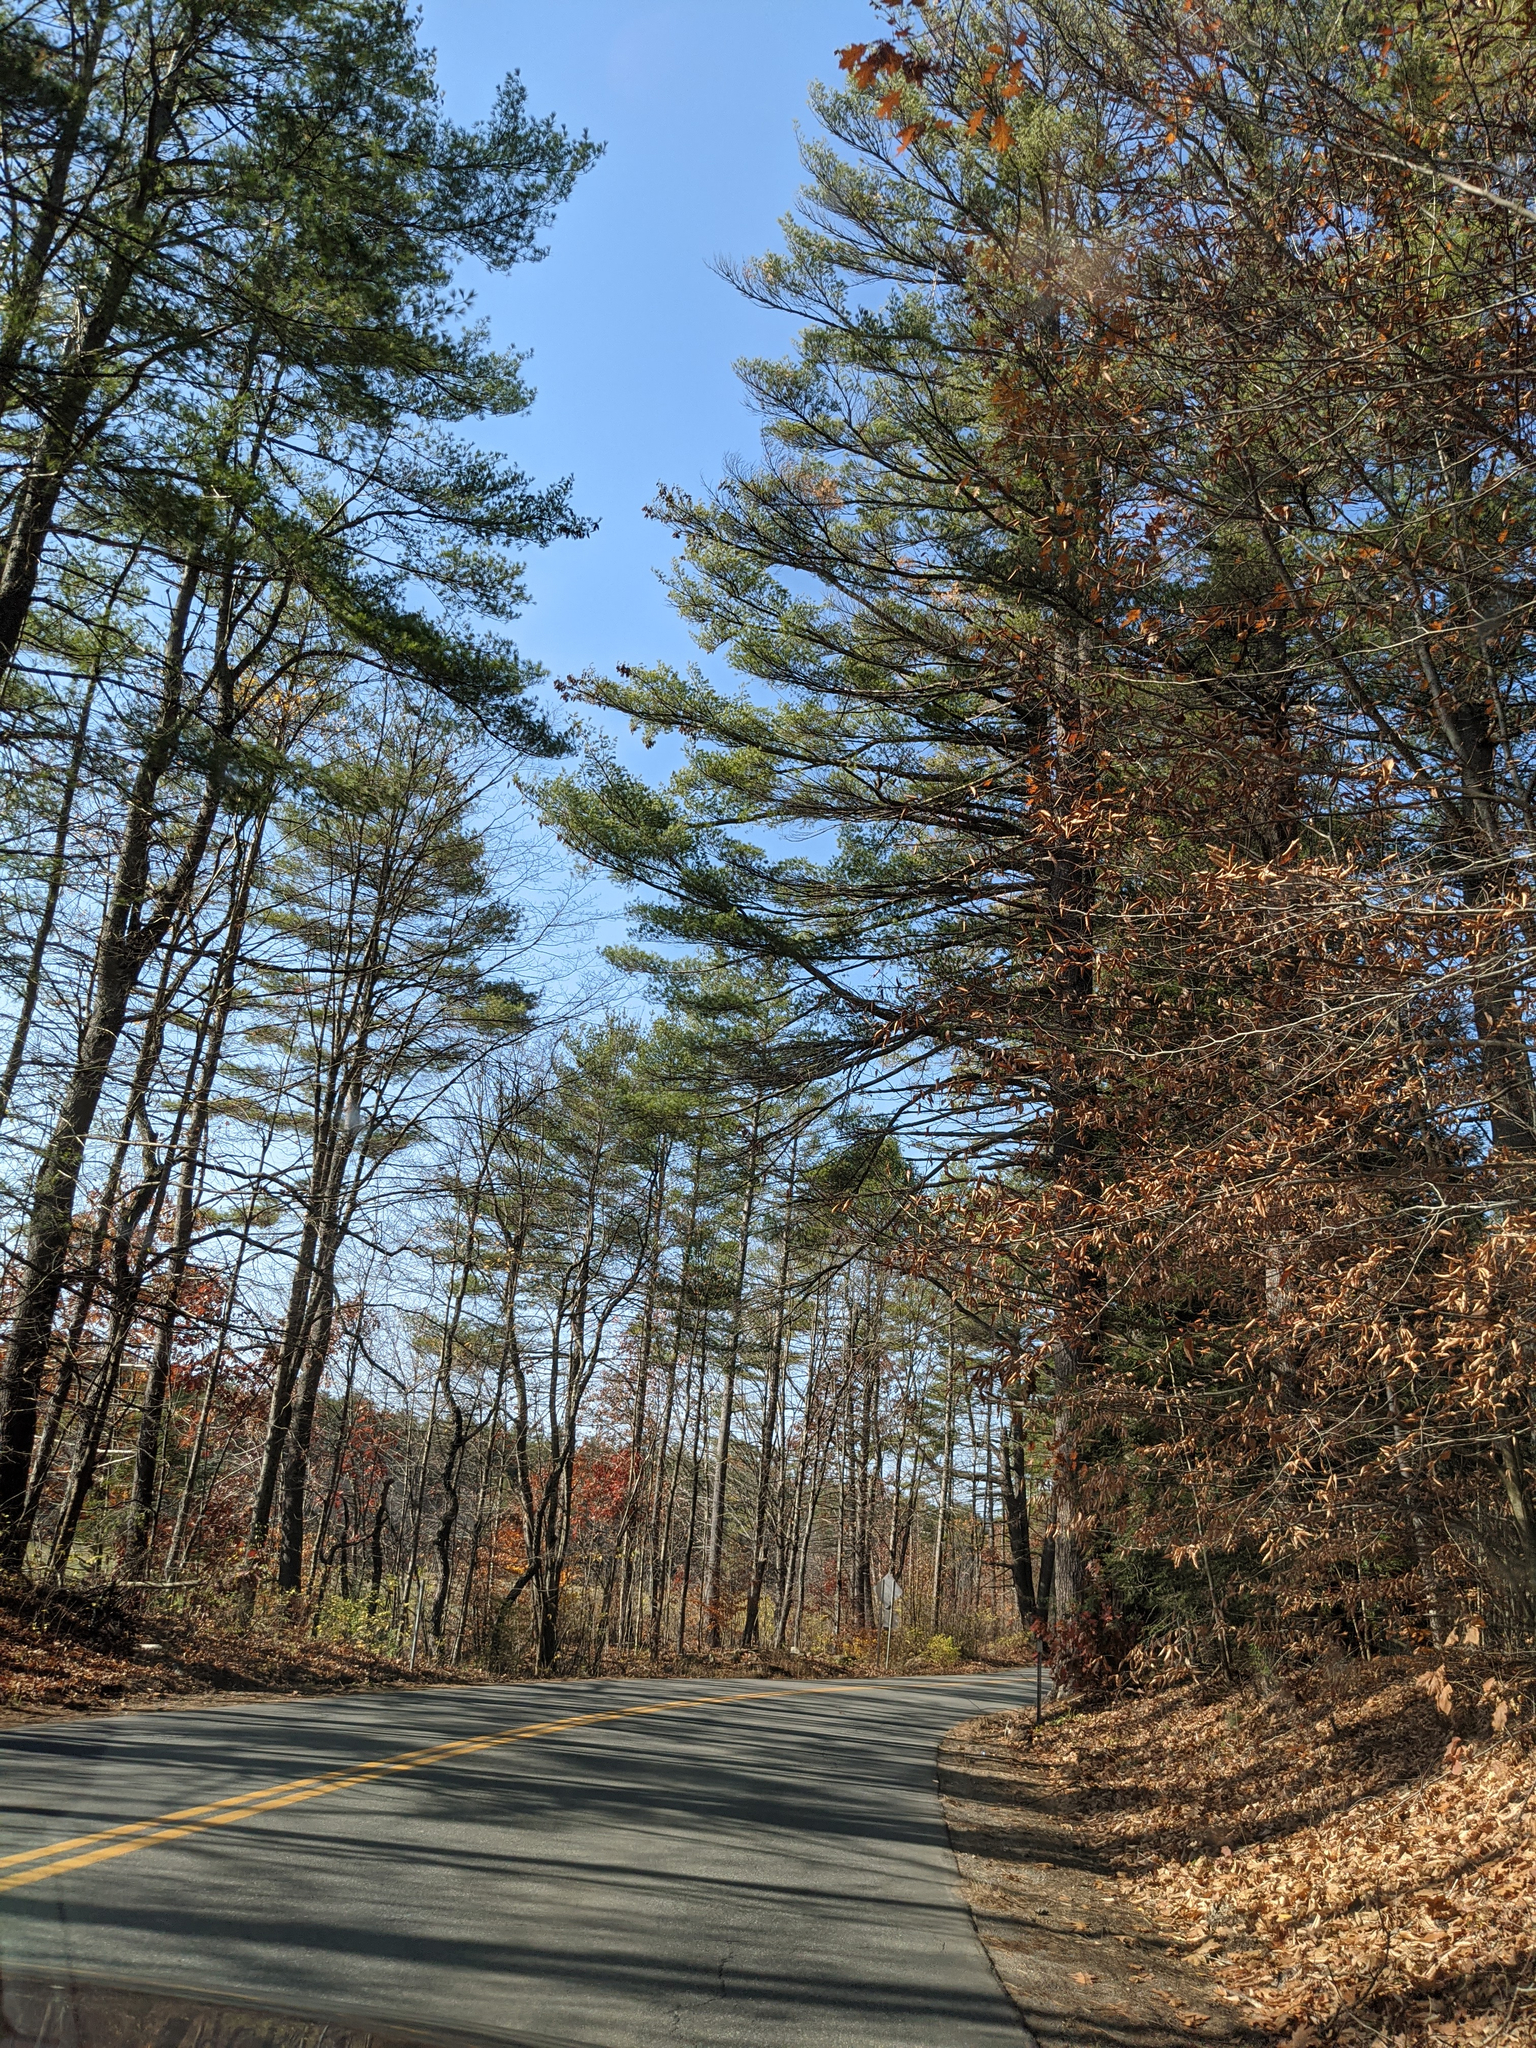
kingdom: Plantae
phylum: Tracheophyta
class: Pinopsida
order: Pinales
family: Pinaceae
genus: Pinus
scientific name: Pinus strobus
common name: Weymouth pine
